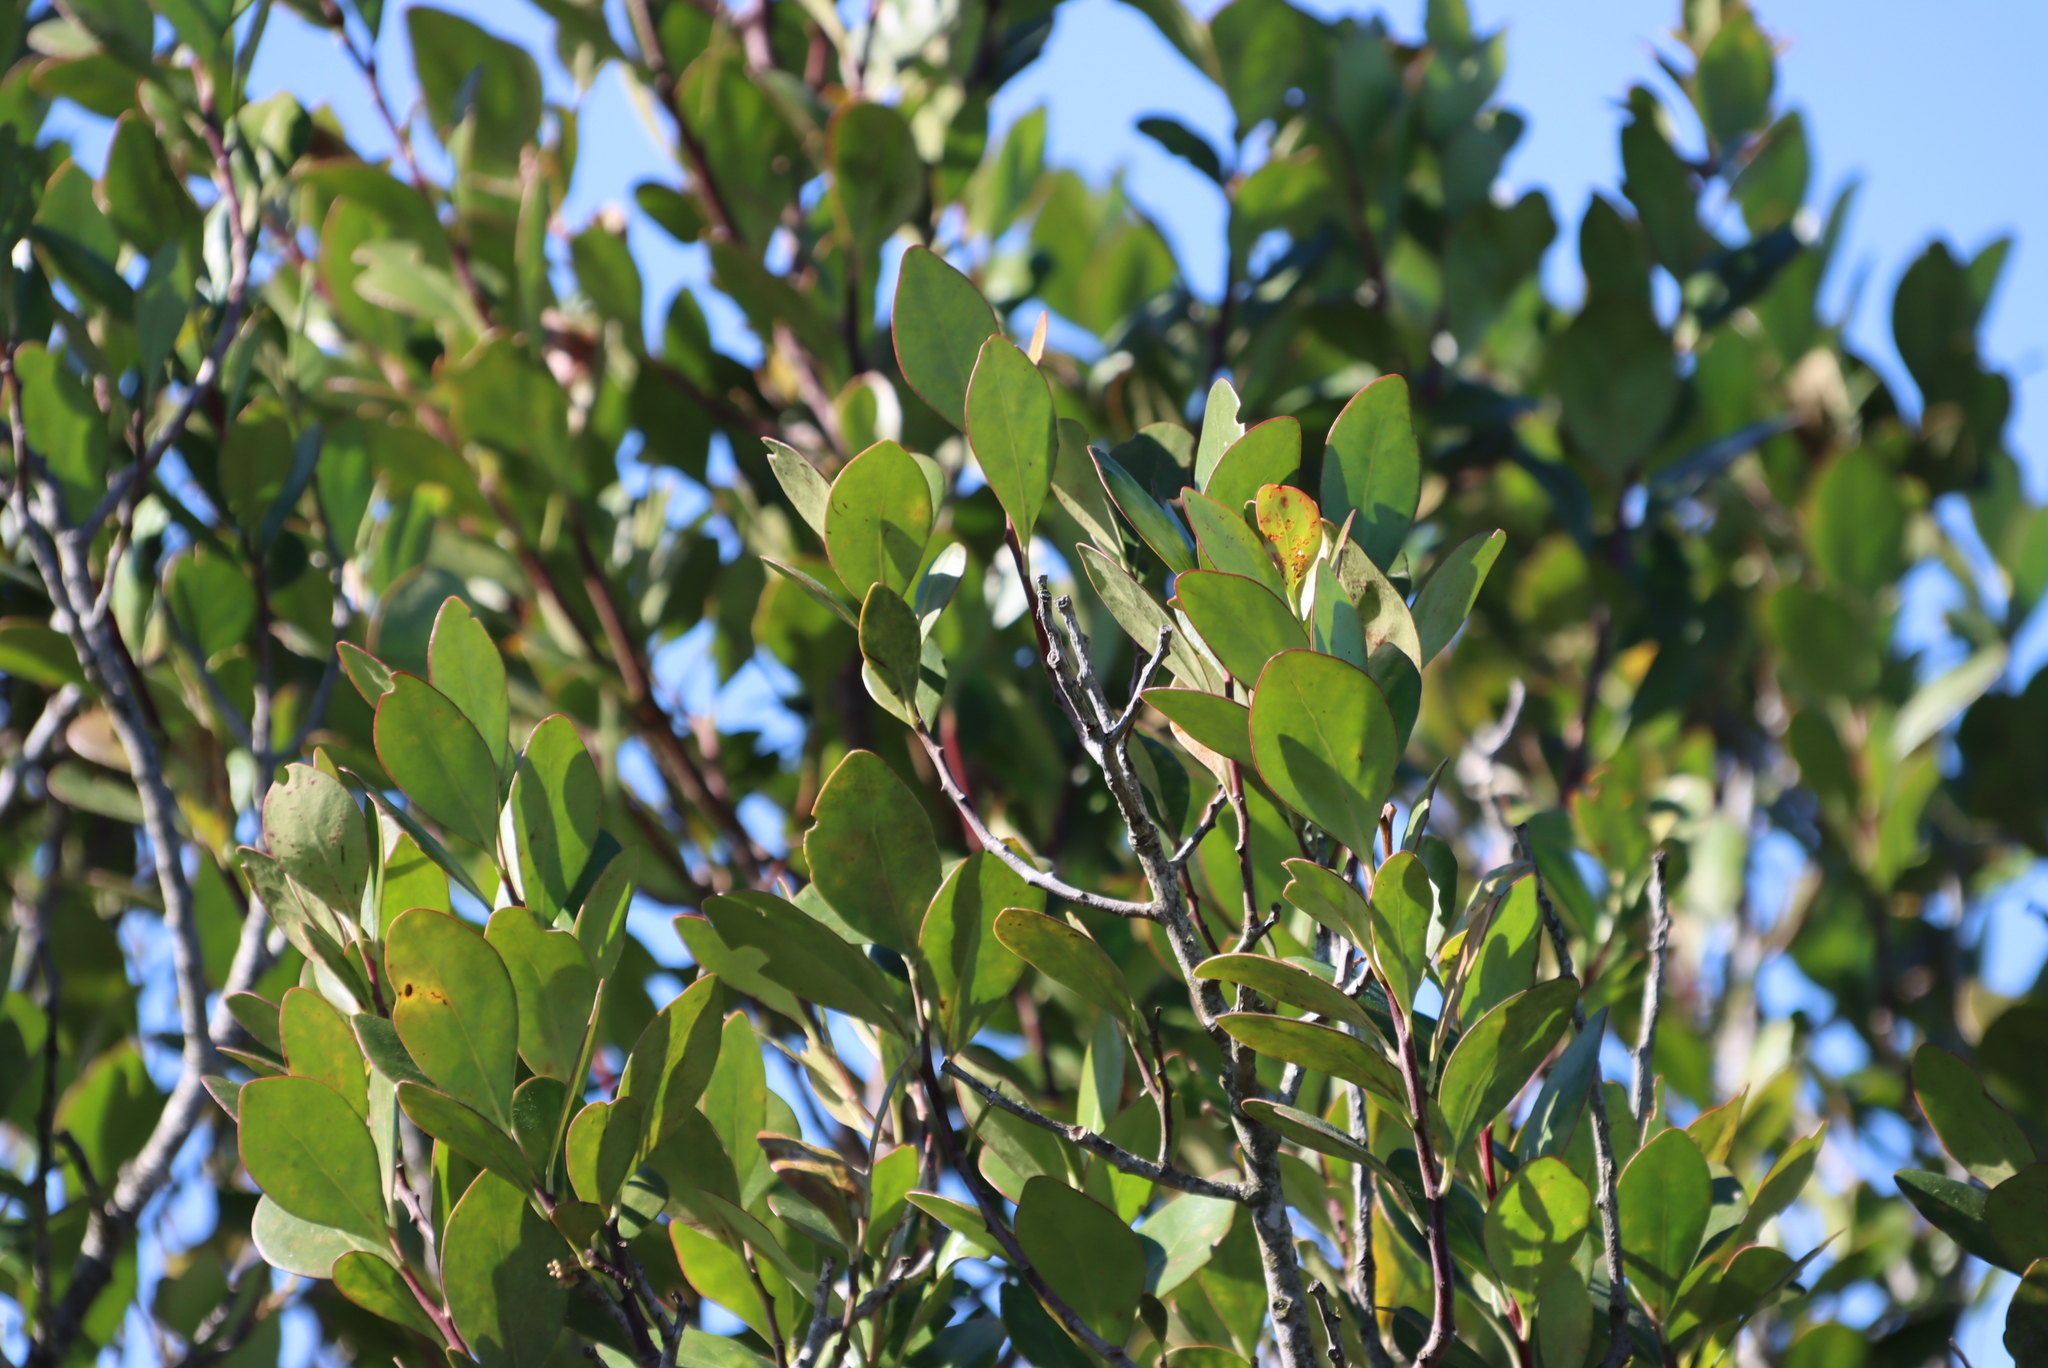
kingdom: Plantae
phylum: Tracheophyta
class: Magnoliopsida
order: Celastrales
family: Celastraceae
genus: Pterocelastrus
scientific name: Pterocelastrus tricuspidatus
